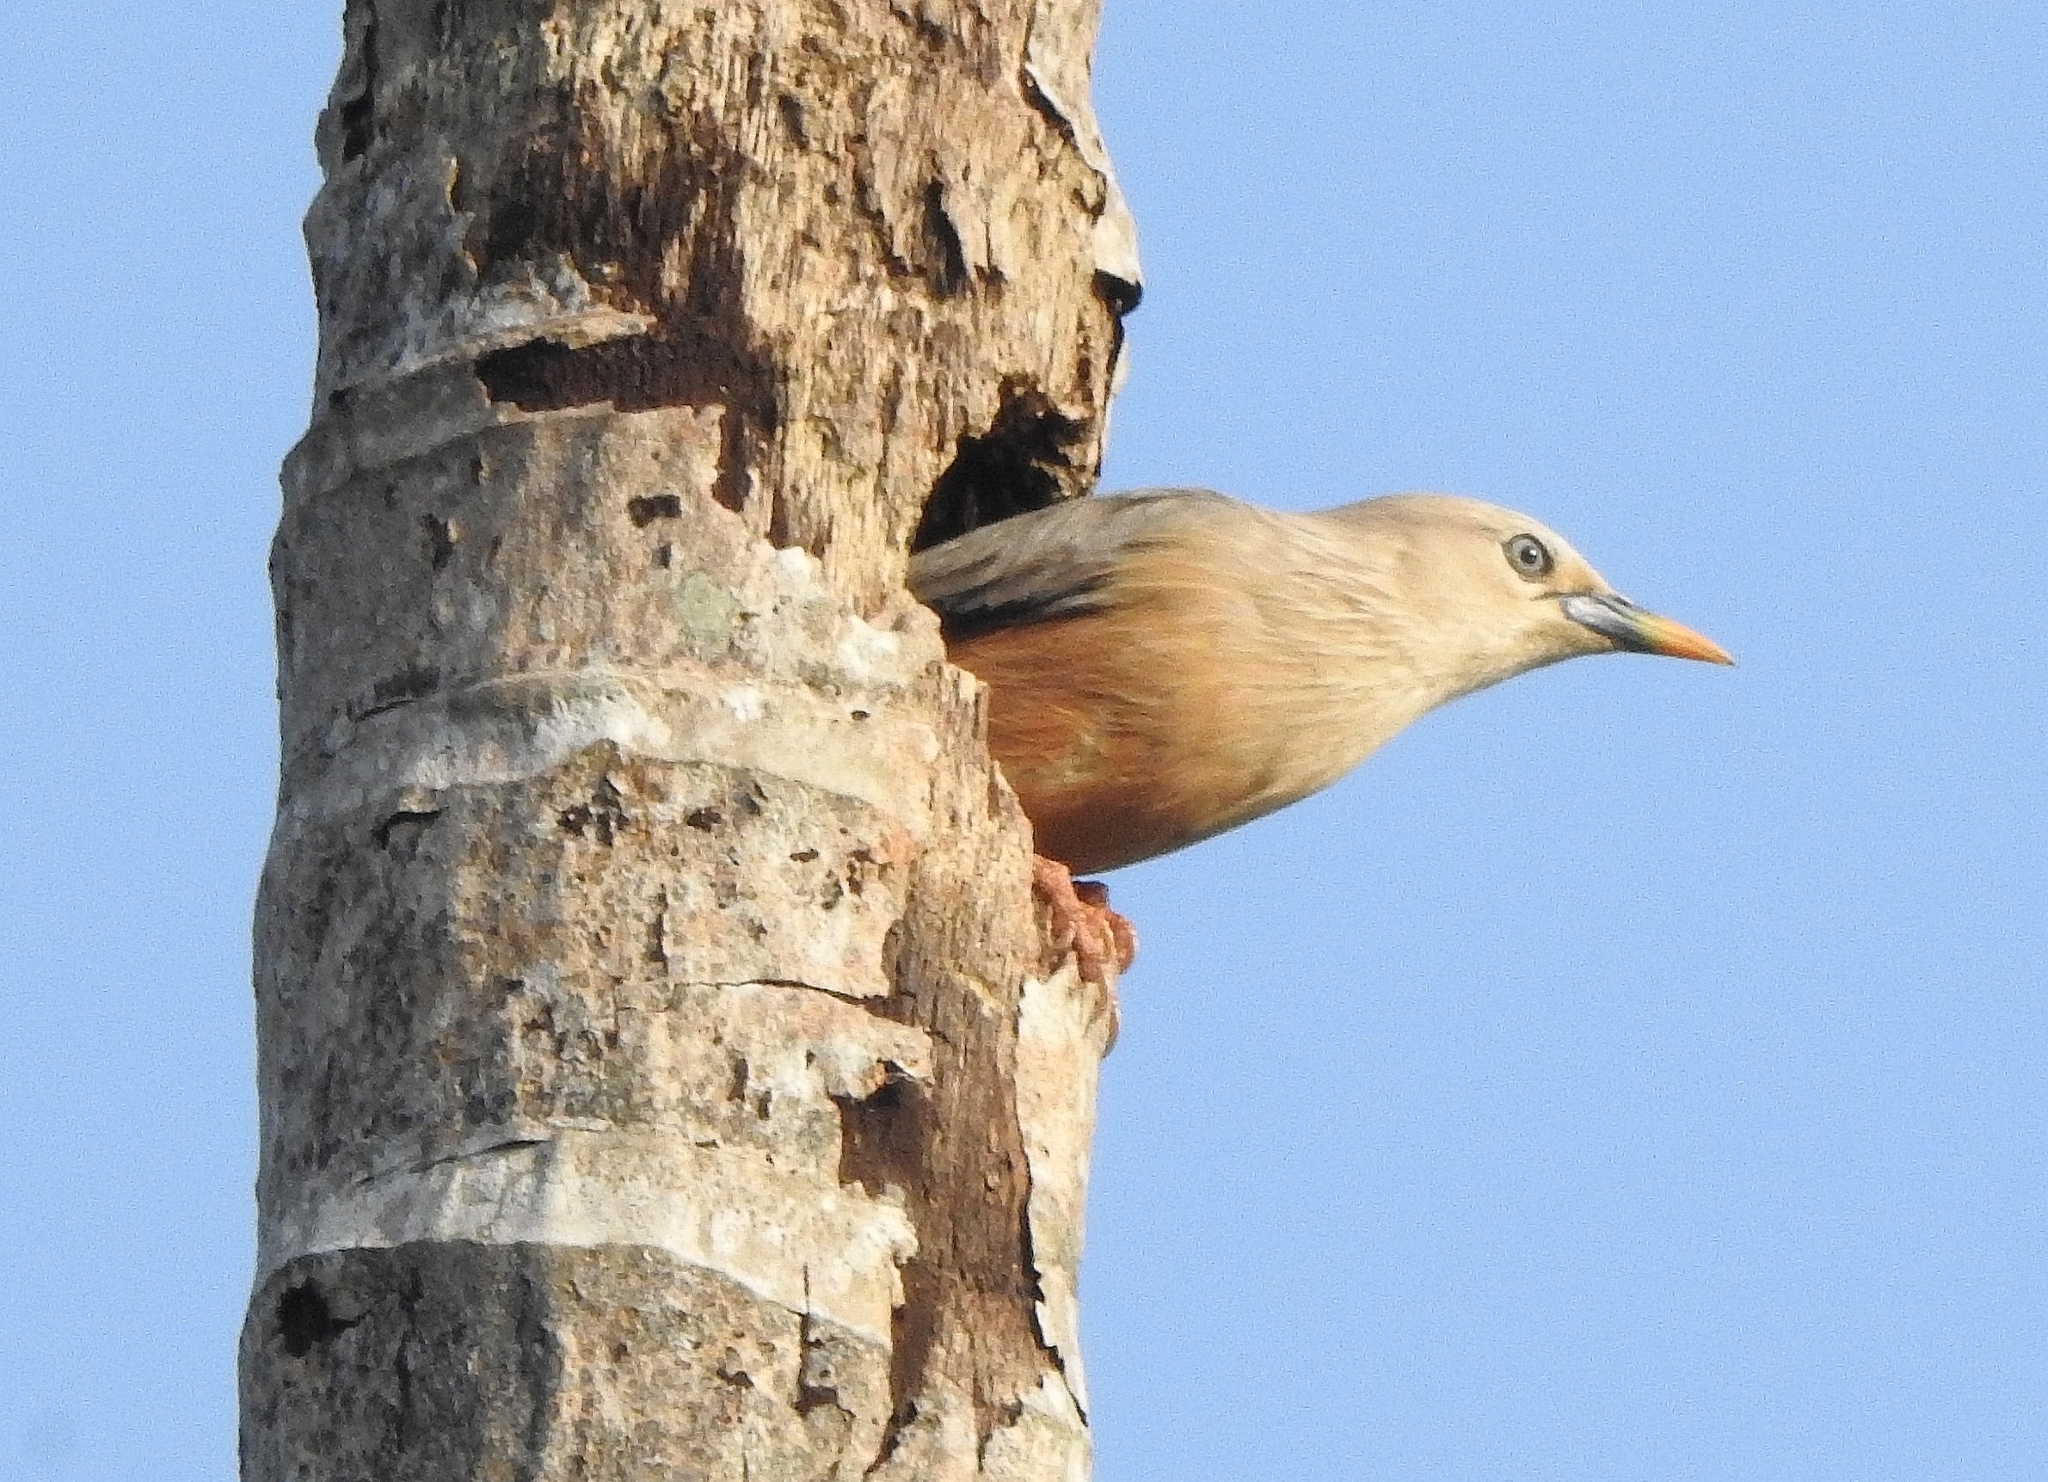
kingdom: Animalia
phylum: Chordata
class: Aves
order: Passeriformes
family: Sturnidae
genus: Sturnia
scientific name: Sturnia blythii
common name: Malabar starling
